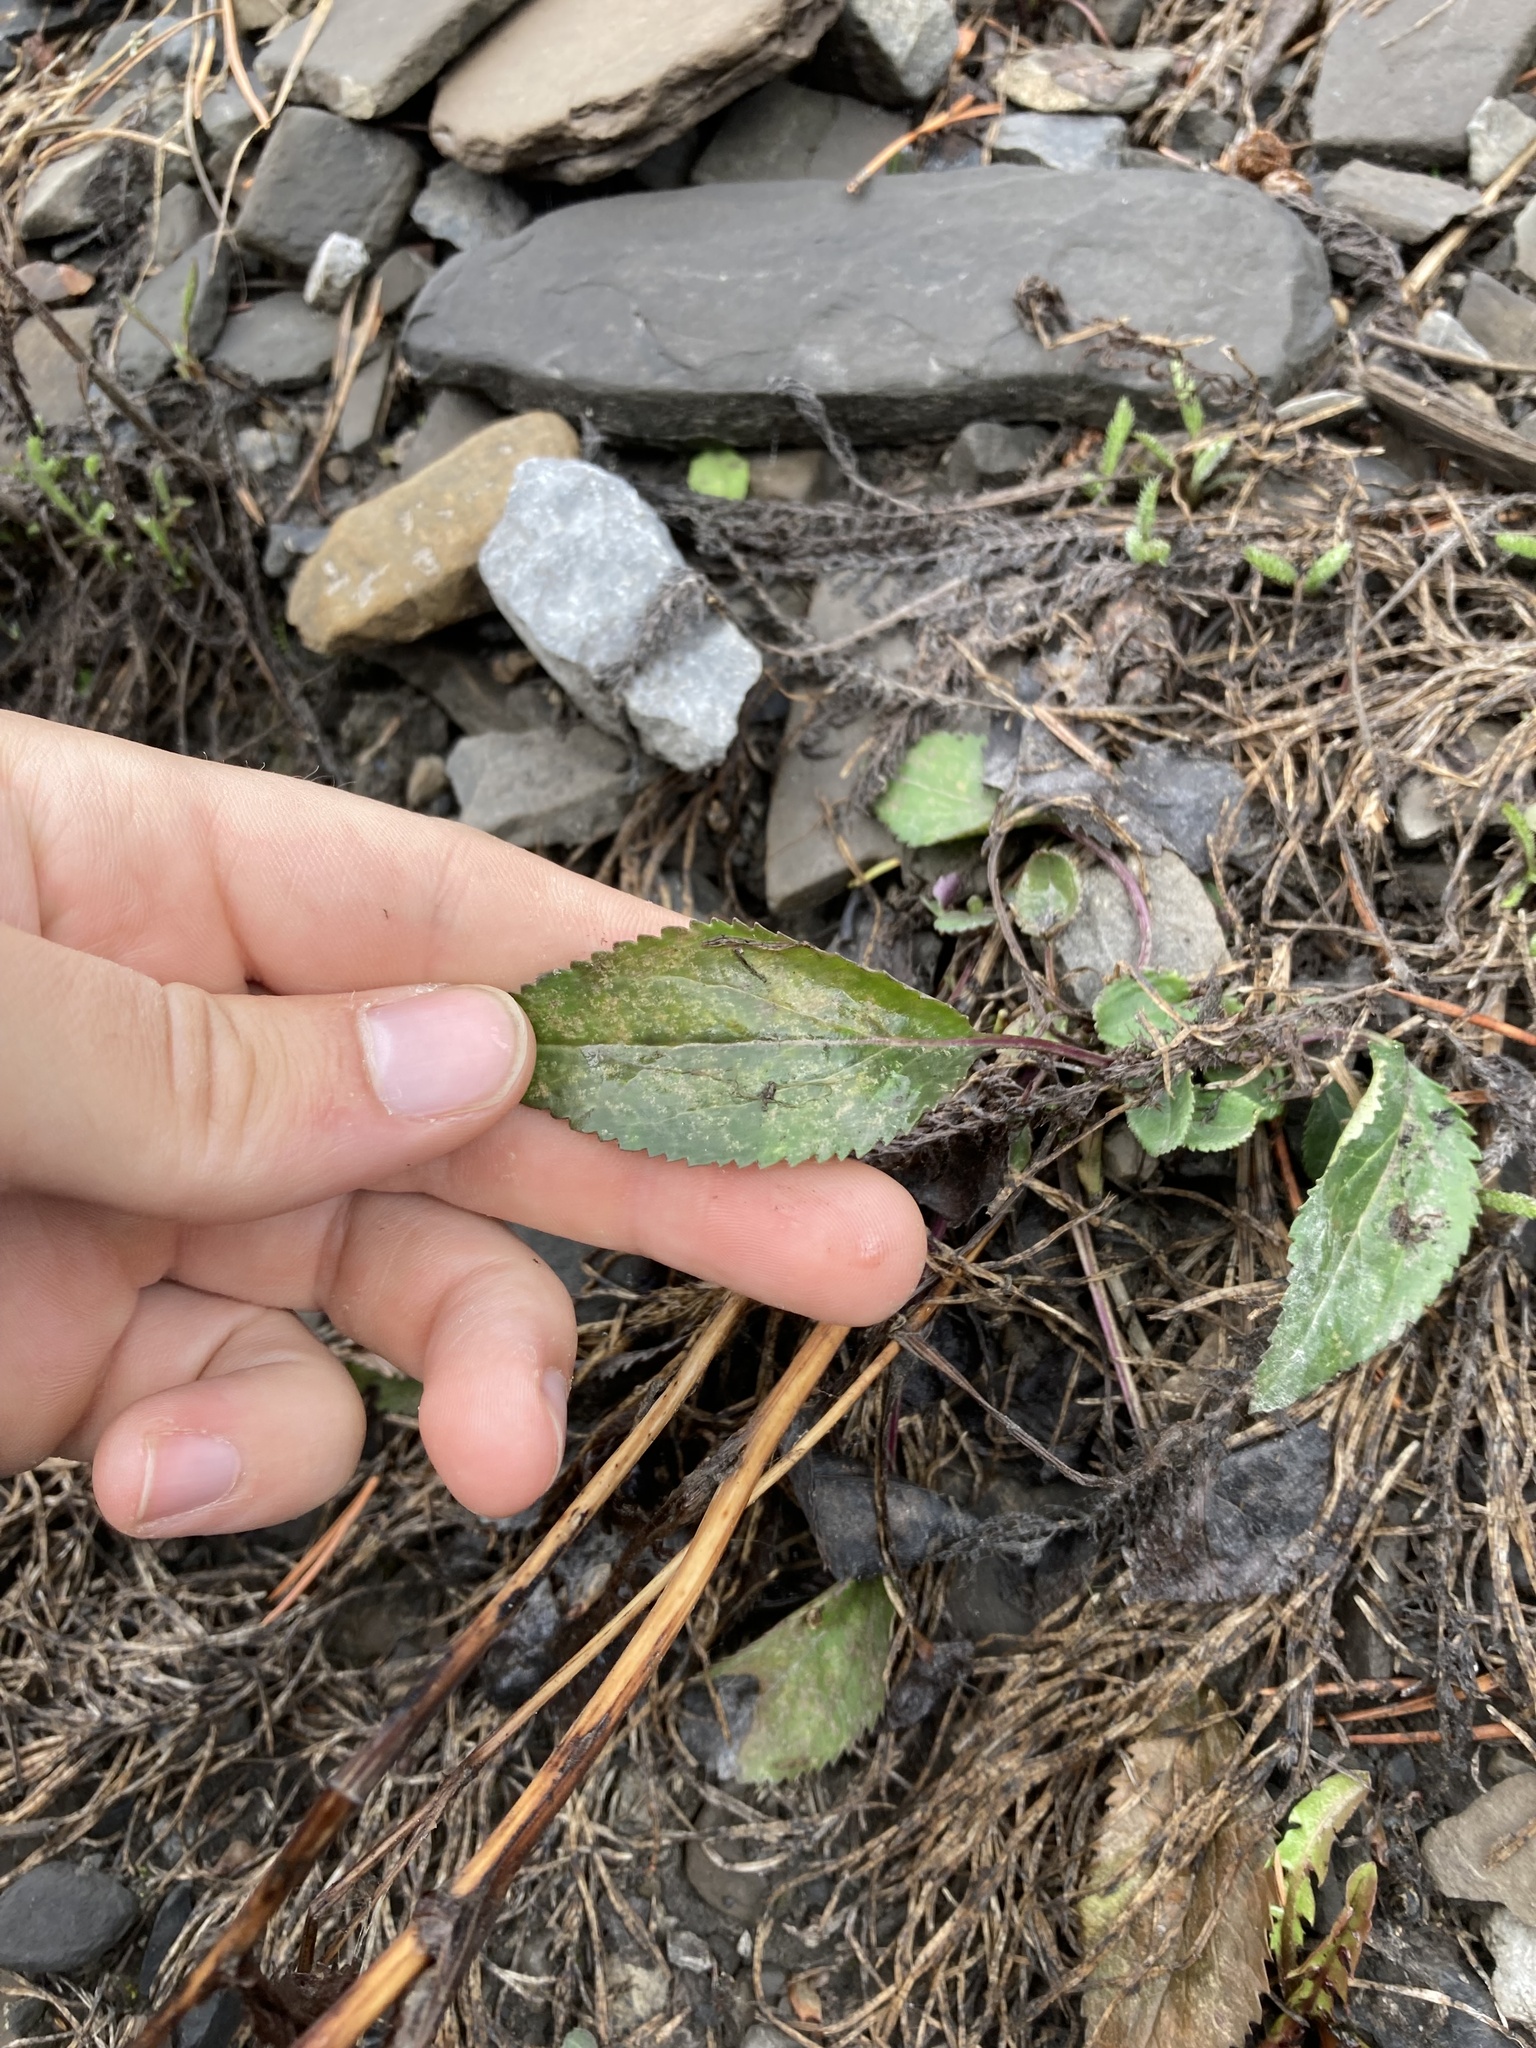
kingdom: Plantae
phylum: Tracheophyta
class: Magnoliopsida
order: Asterales
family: Asteraceae
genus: Packera
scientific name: Packera paupercula
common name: Balsam groundsel
